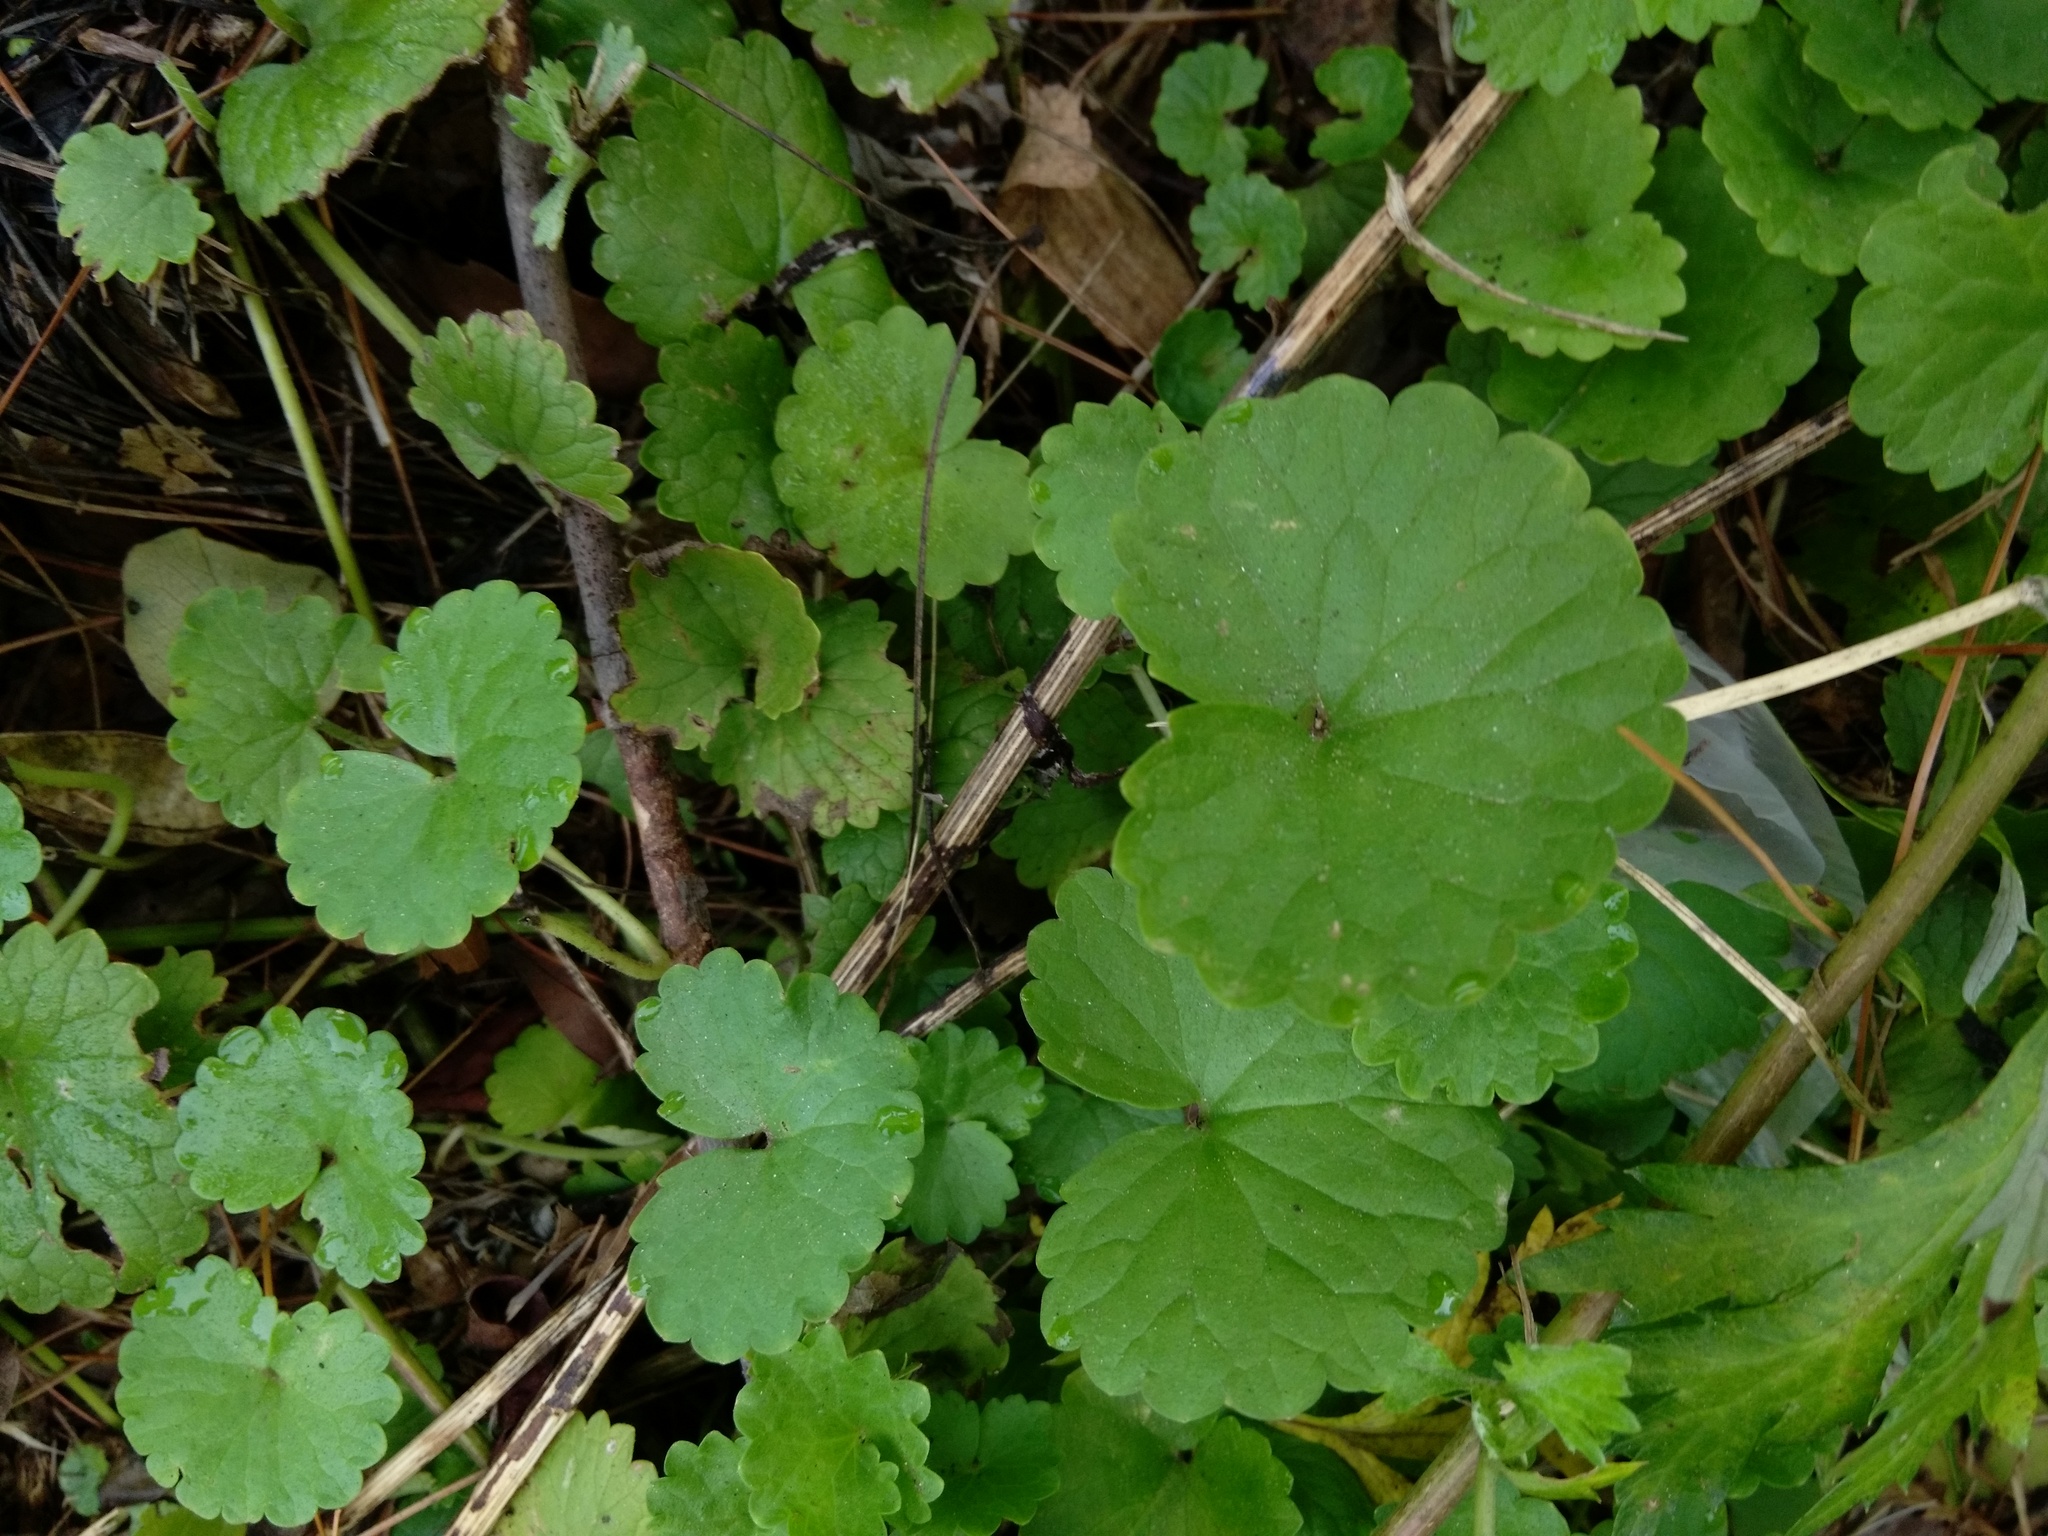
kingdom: Plantae
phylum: Tracheophyta
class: Magnoliopsida
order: Lamiales
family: Lamiaceae
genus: Glechoma
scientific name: Glechoma hederacea
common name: Ground ivy
